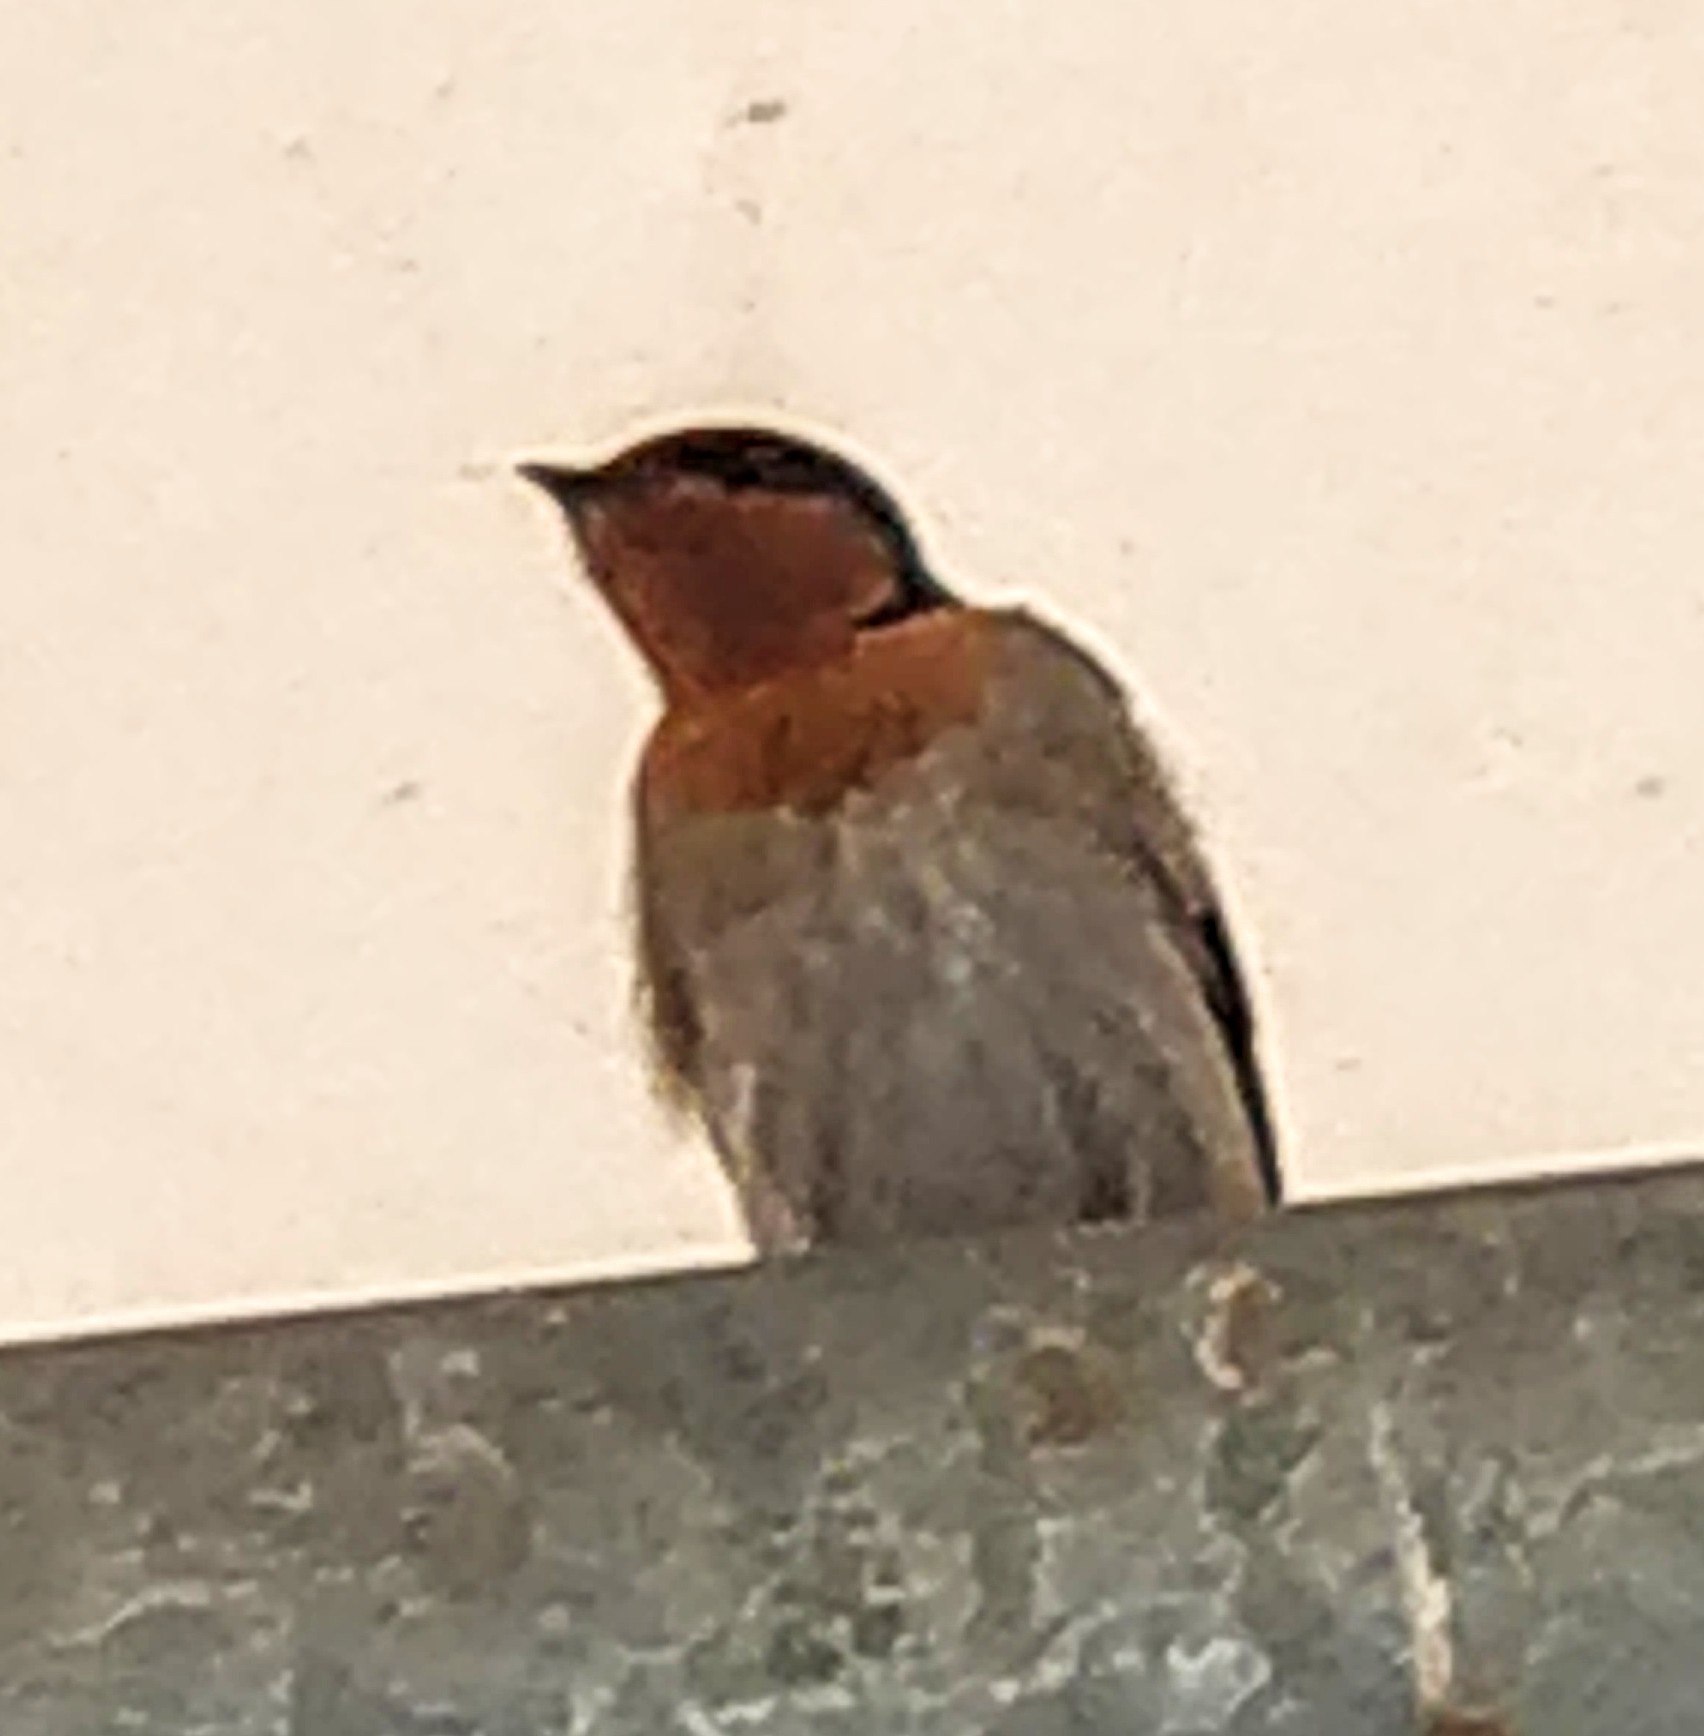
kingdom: Animalia
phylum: Chordata
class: Aves
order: Passeriformes
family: Hirundinidae
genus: Hirundo
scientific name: Hirundo neoxena
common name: Welcome swallow
